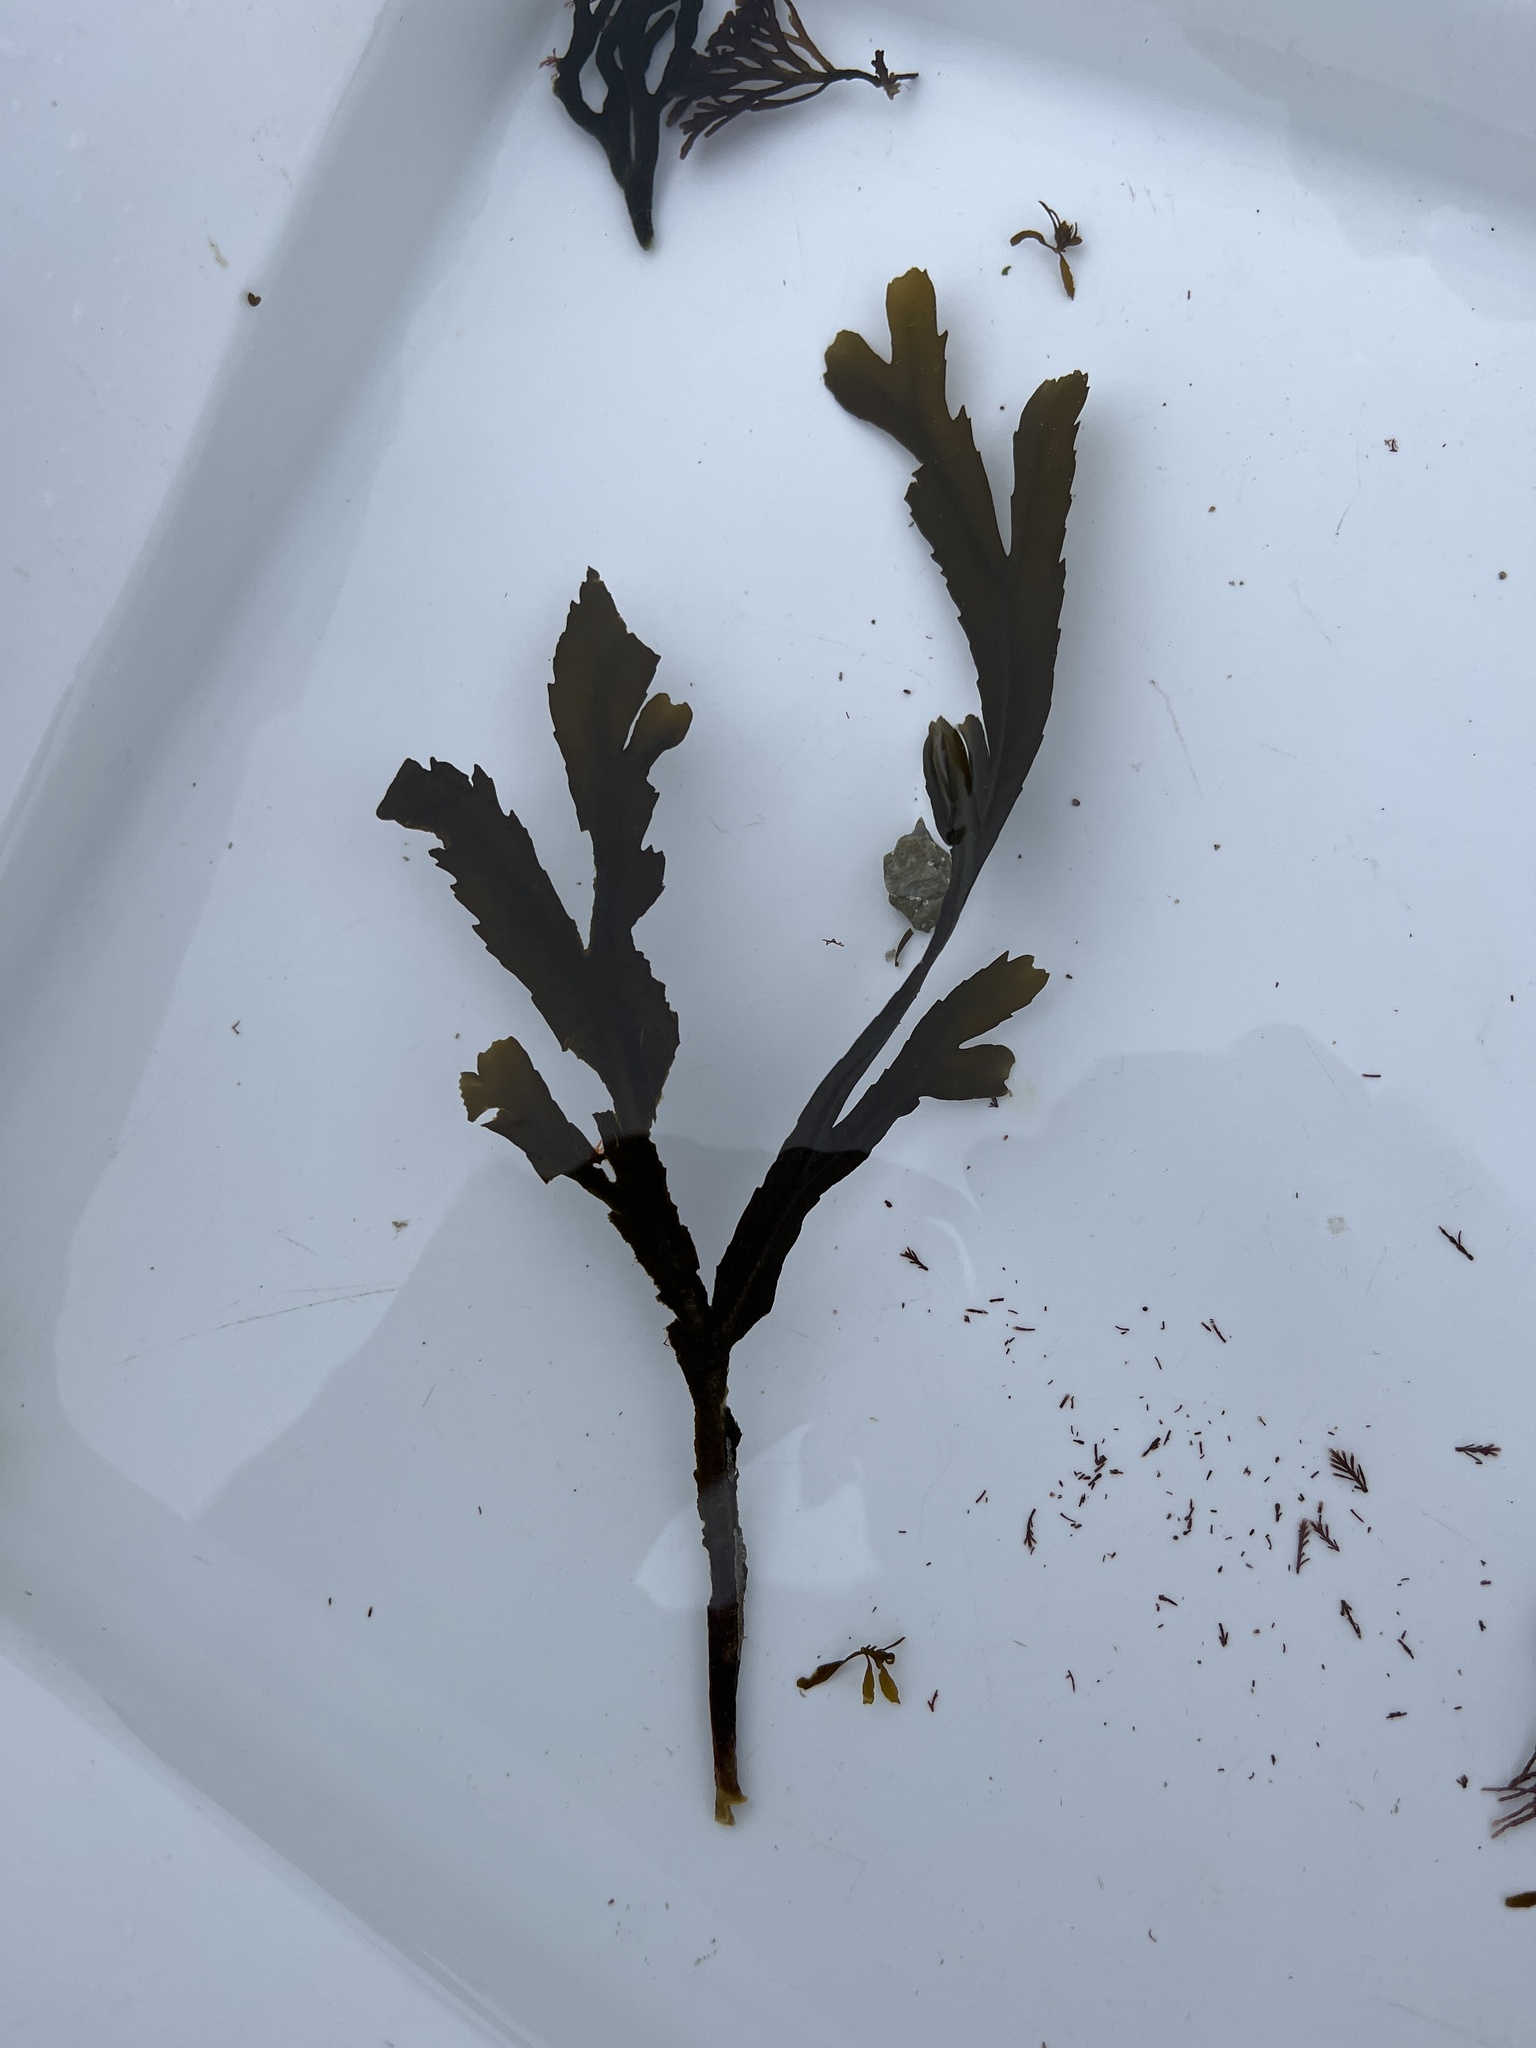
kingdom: Chromista
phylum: Ochrophyta
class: Phaeophyceae
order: Fucales
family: Fucaceae
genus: Fucus
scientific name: Fucus serratus
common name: Toothed wrack
